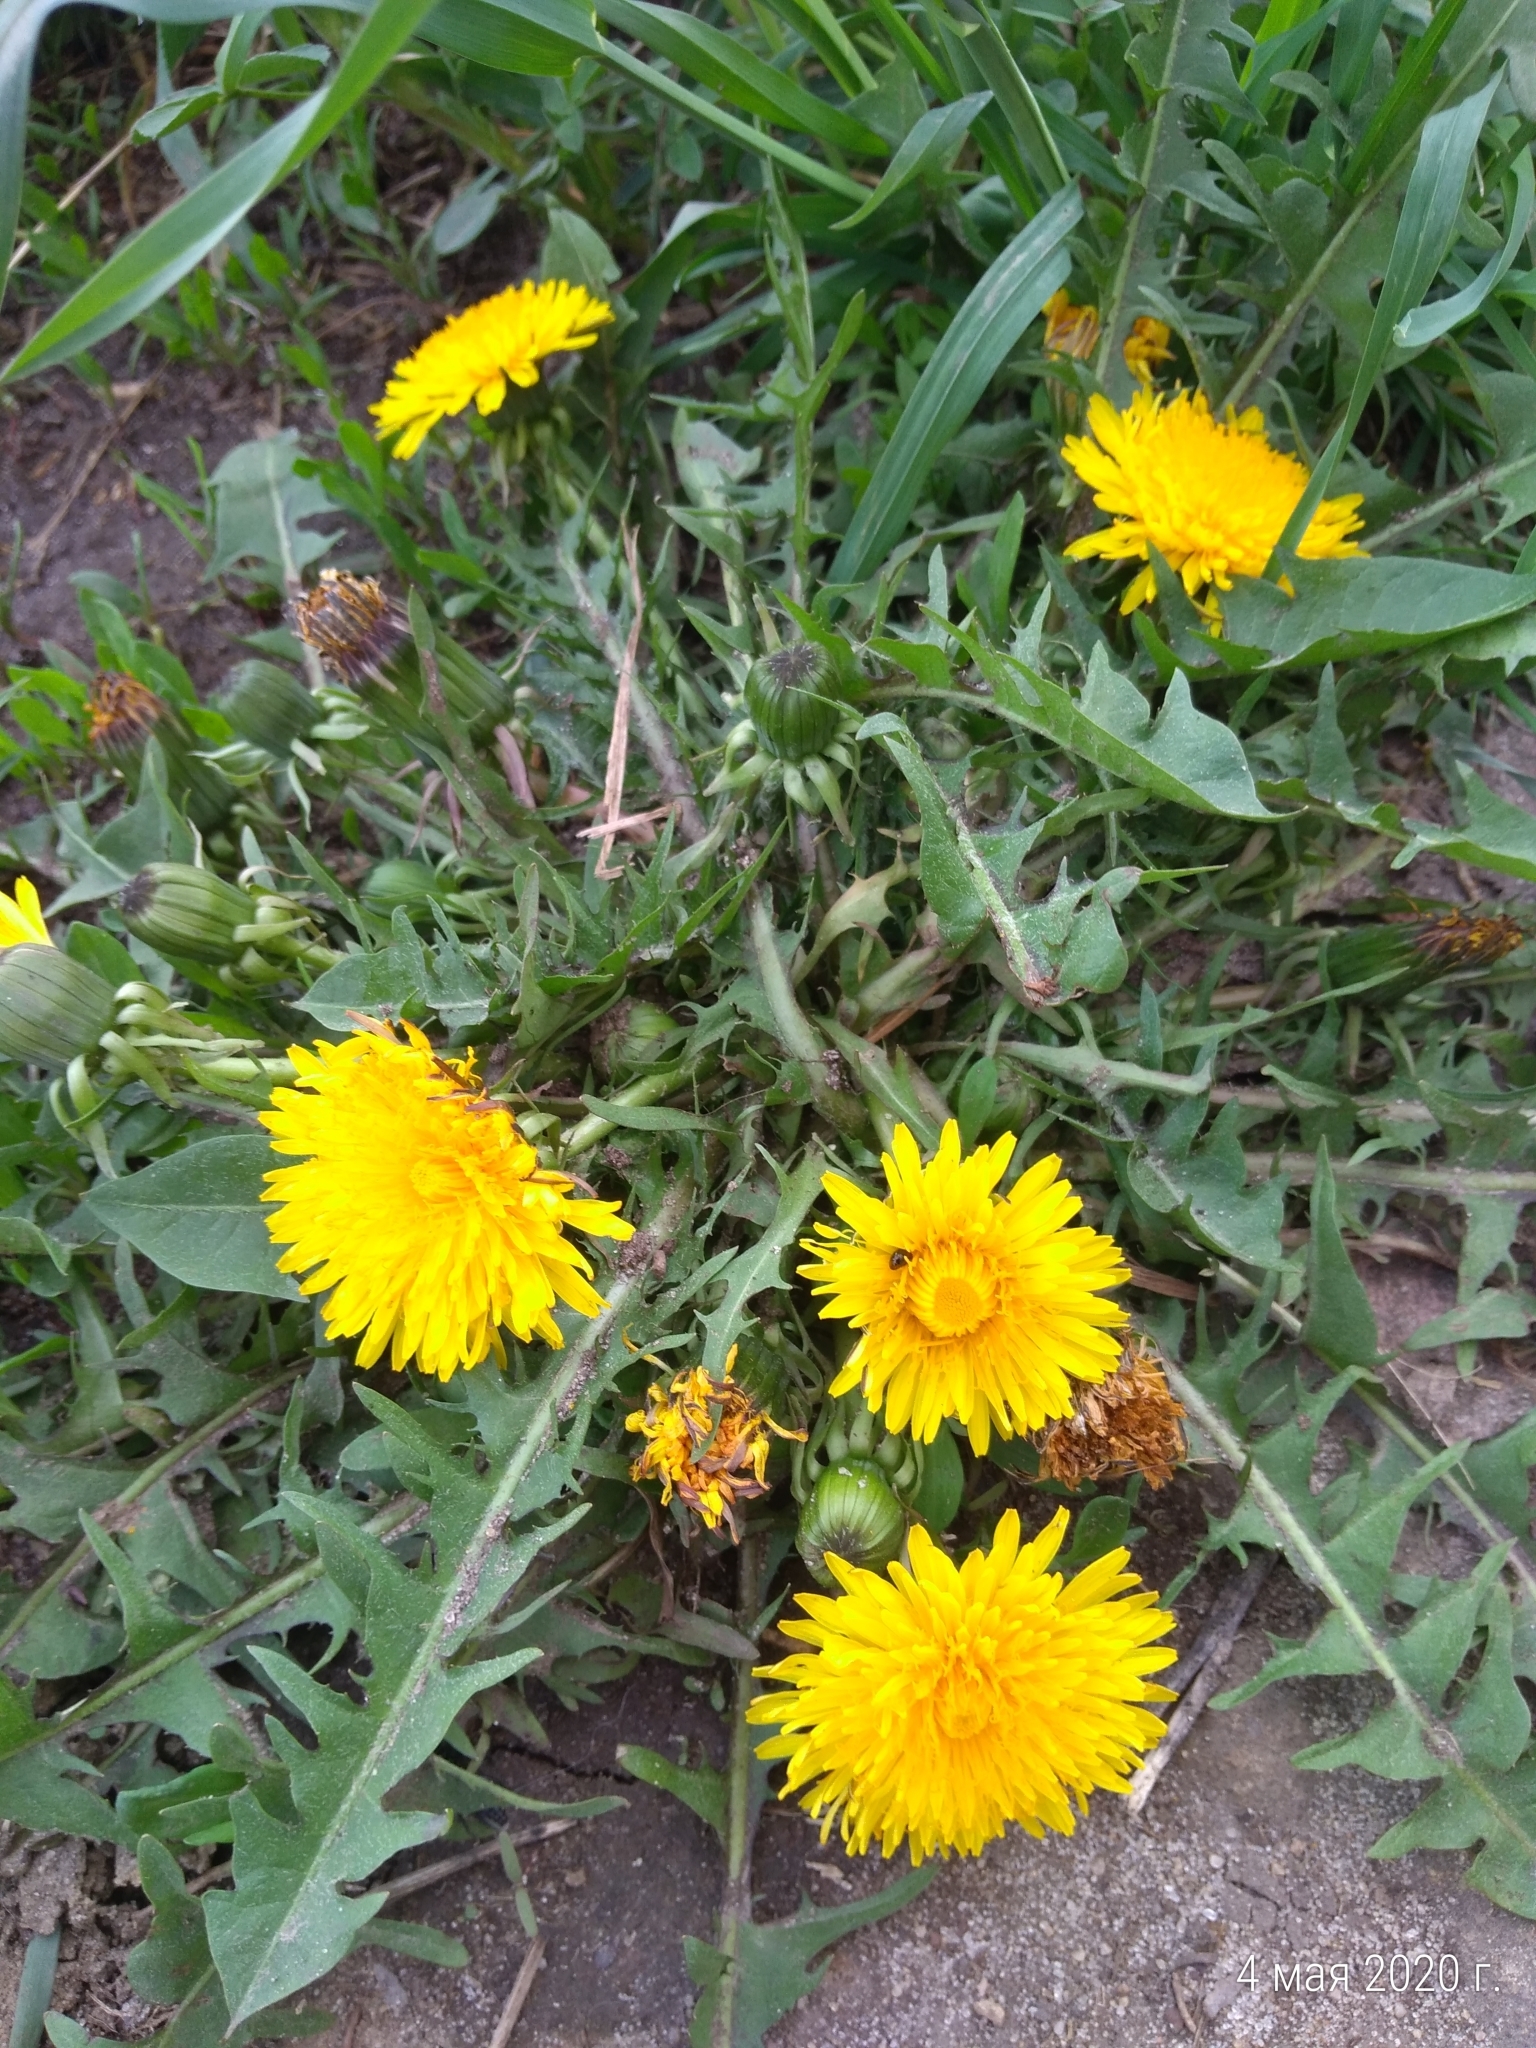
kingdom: Plantae
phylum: Tracheophyta
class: Magnoliopsida
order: Asterales
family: Asteraceae
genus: Taraxacum
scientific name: Taraxacum officinale
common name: Common dandelion
